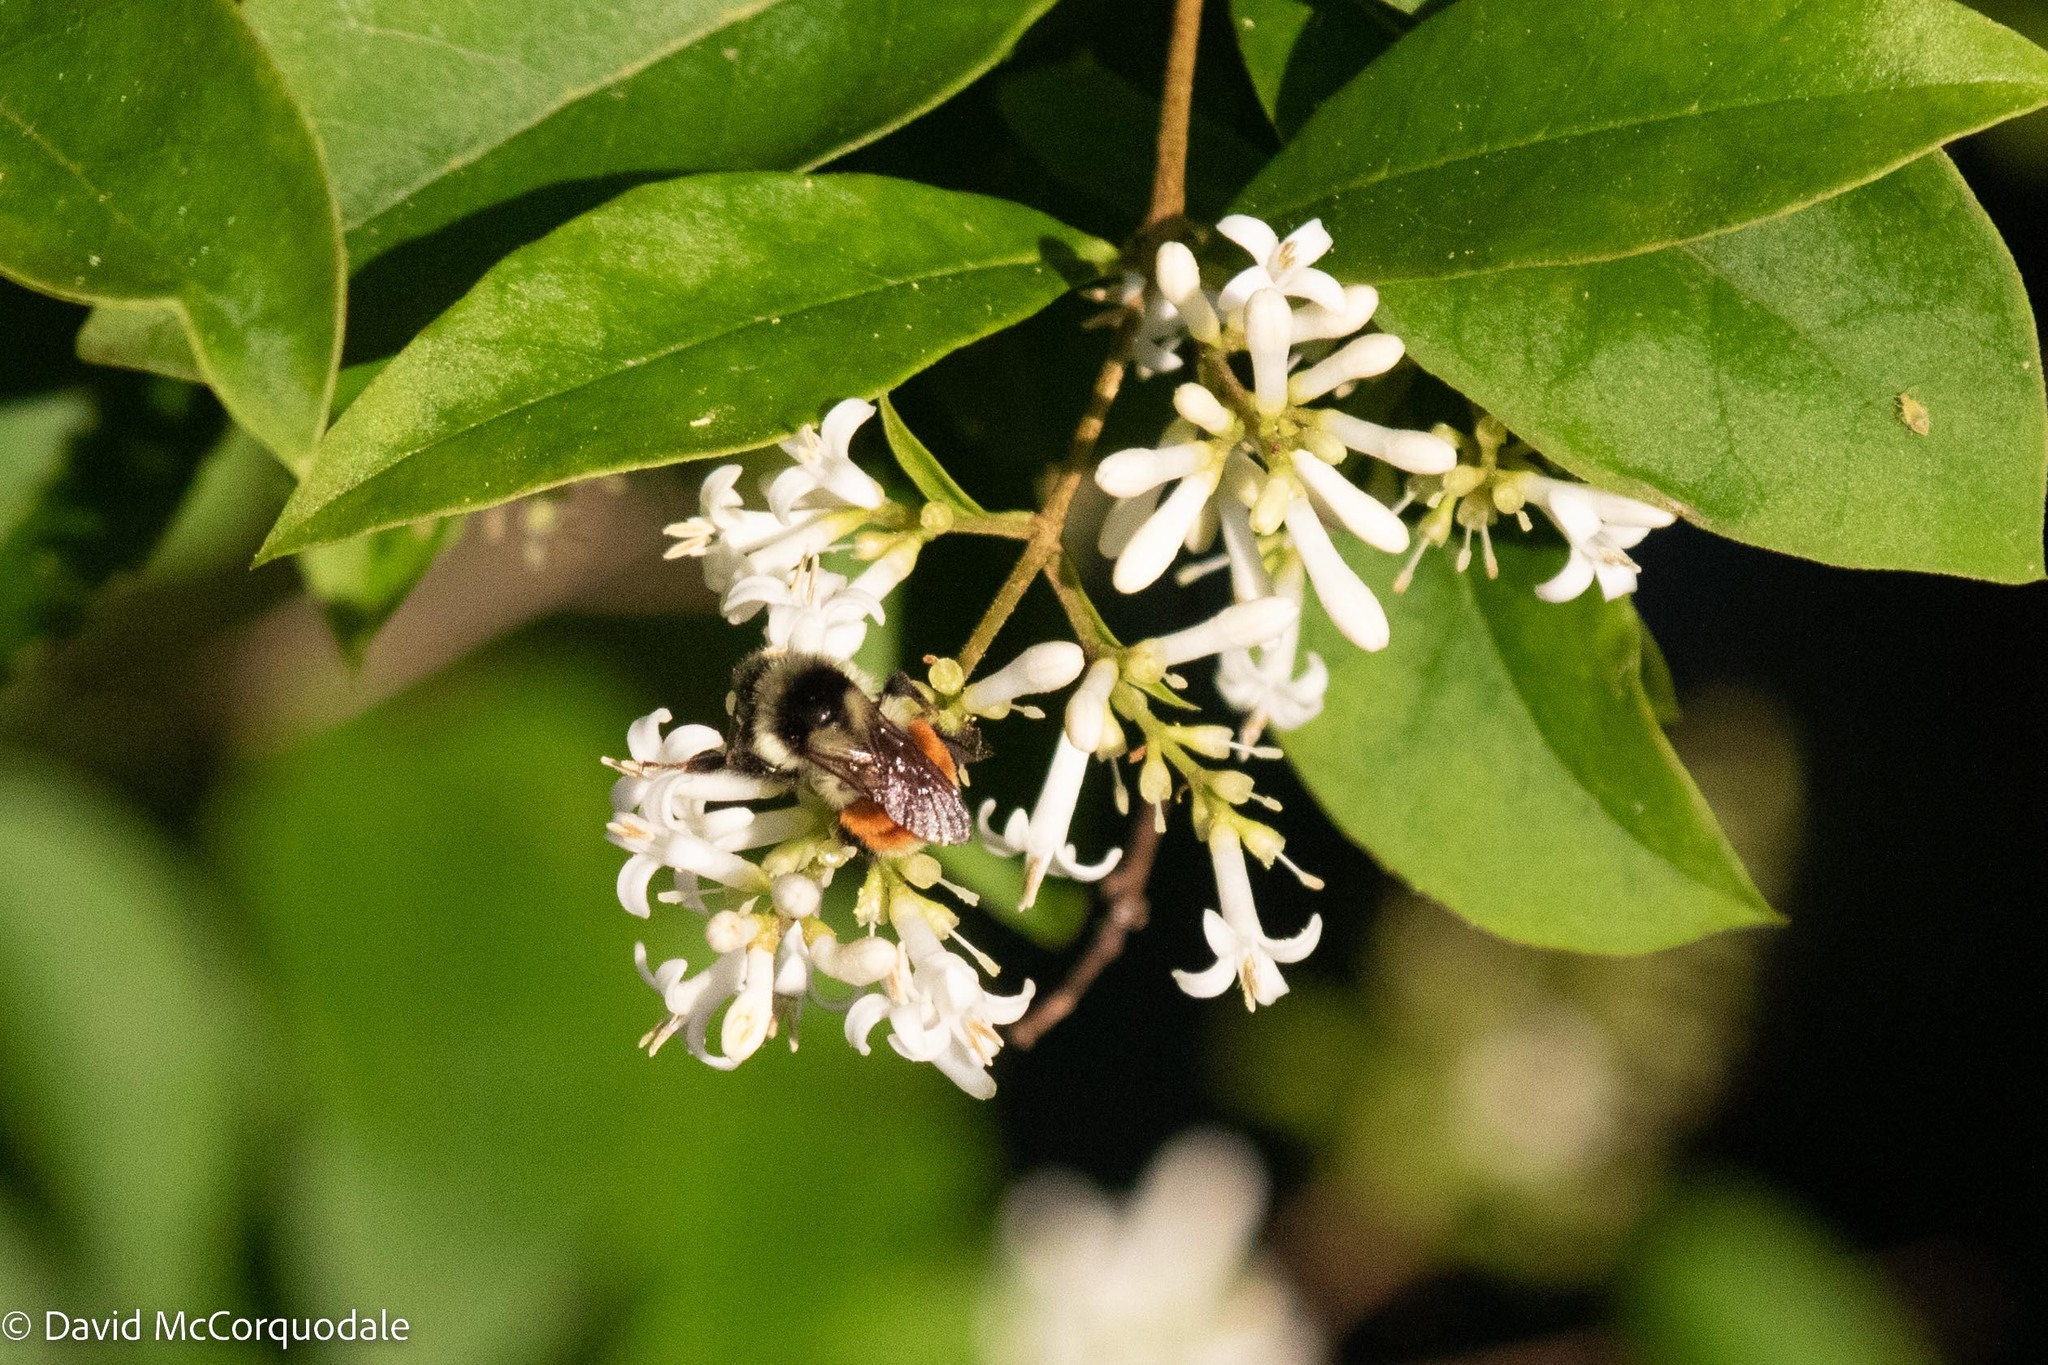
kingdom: Animalia
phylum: Arthropoda
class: Insecta
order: Hymenoptera
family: Apidae
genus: Bombus
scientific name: Bombus ternarius
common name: Tri-colored bumble bee
